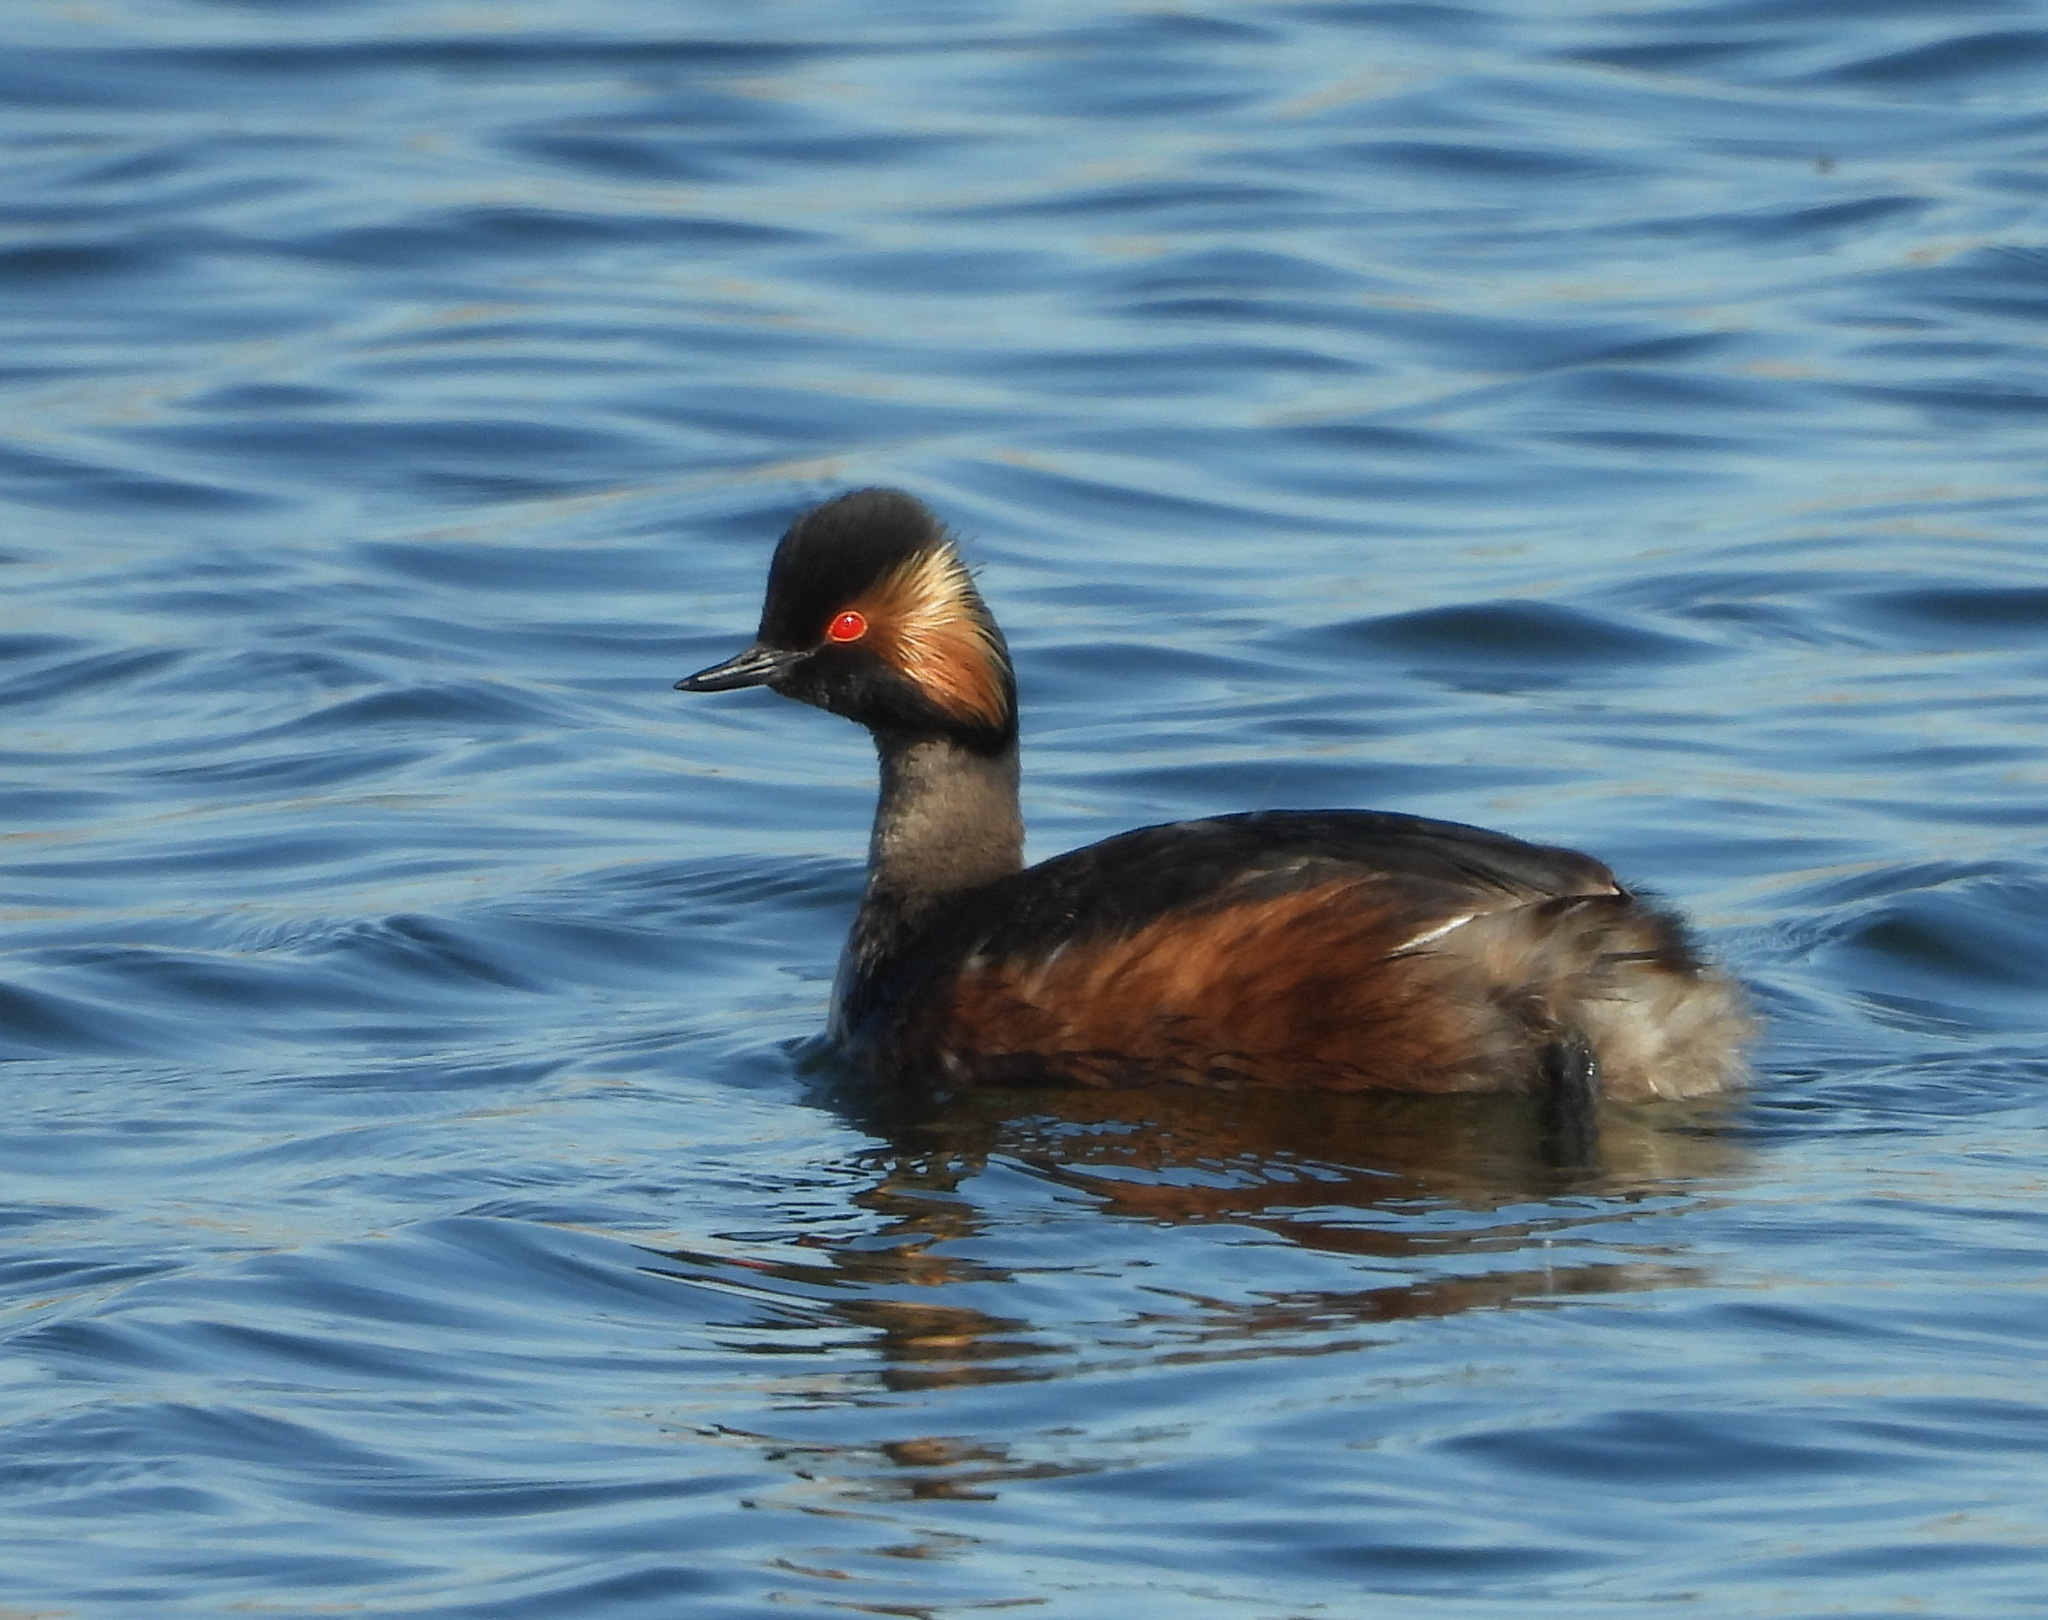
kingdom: Animalia
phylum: Chordata
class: Aves
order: Podicipediformes
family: Podicipedidae
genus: Podiceps
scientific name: Podiceps nigricollis
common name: Black-necked grebe
